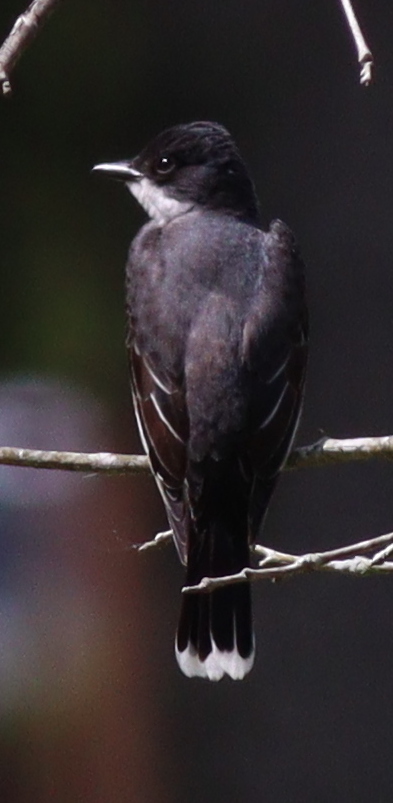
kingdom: Animalia
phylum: Chordata
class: Aves
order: Passeriformes
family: Tyrannidae
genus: Tyrannus
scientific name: Tyrannus tyrannus
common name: Eastern kingbird
